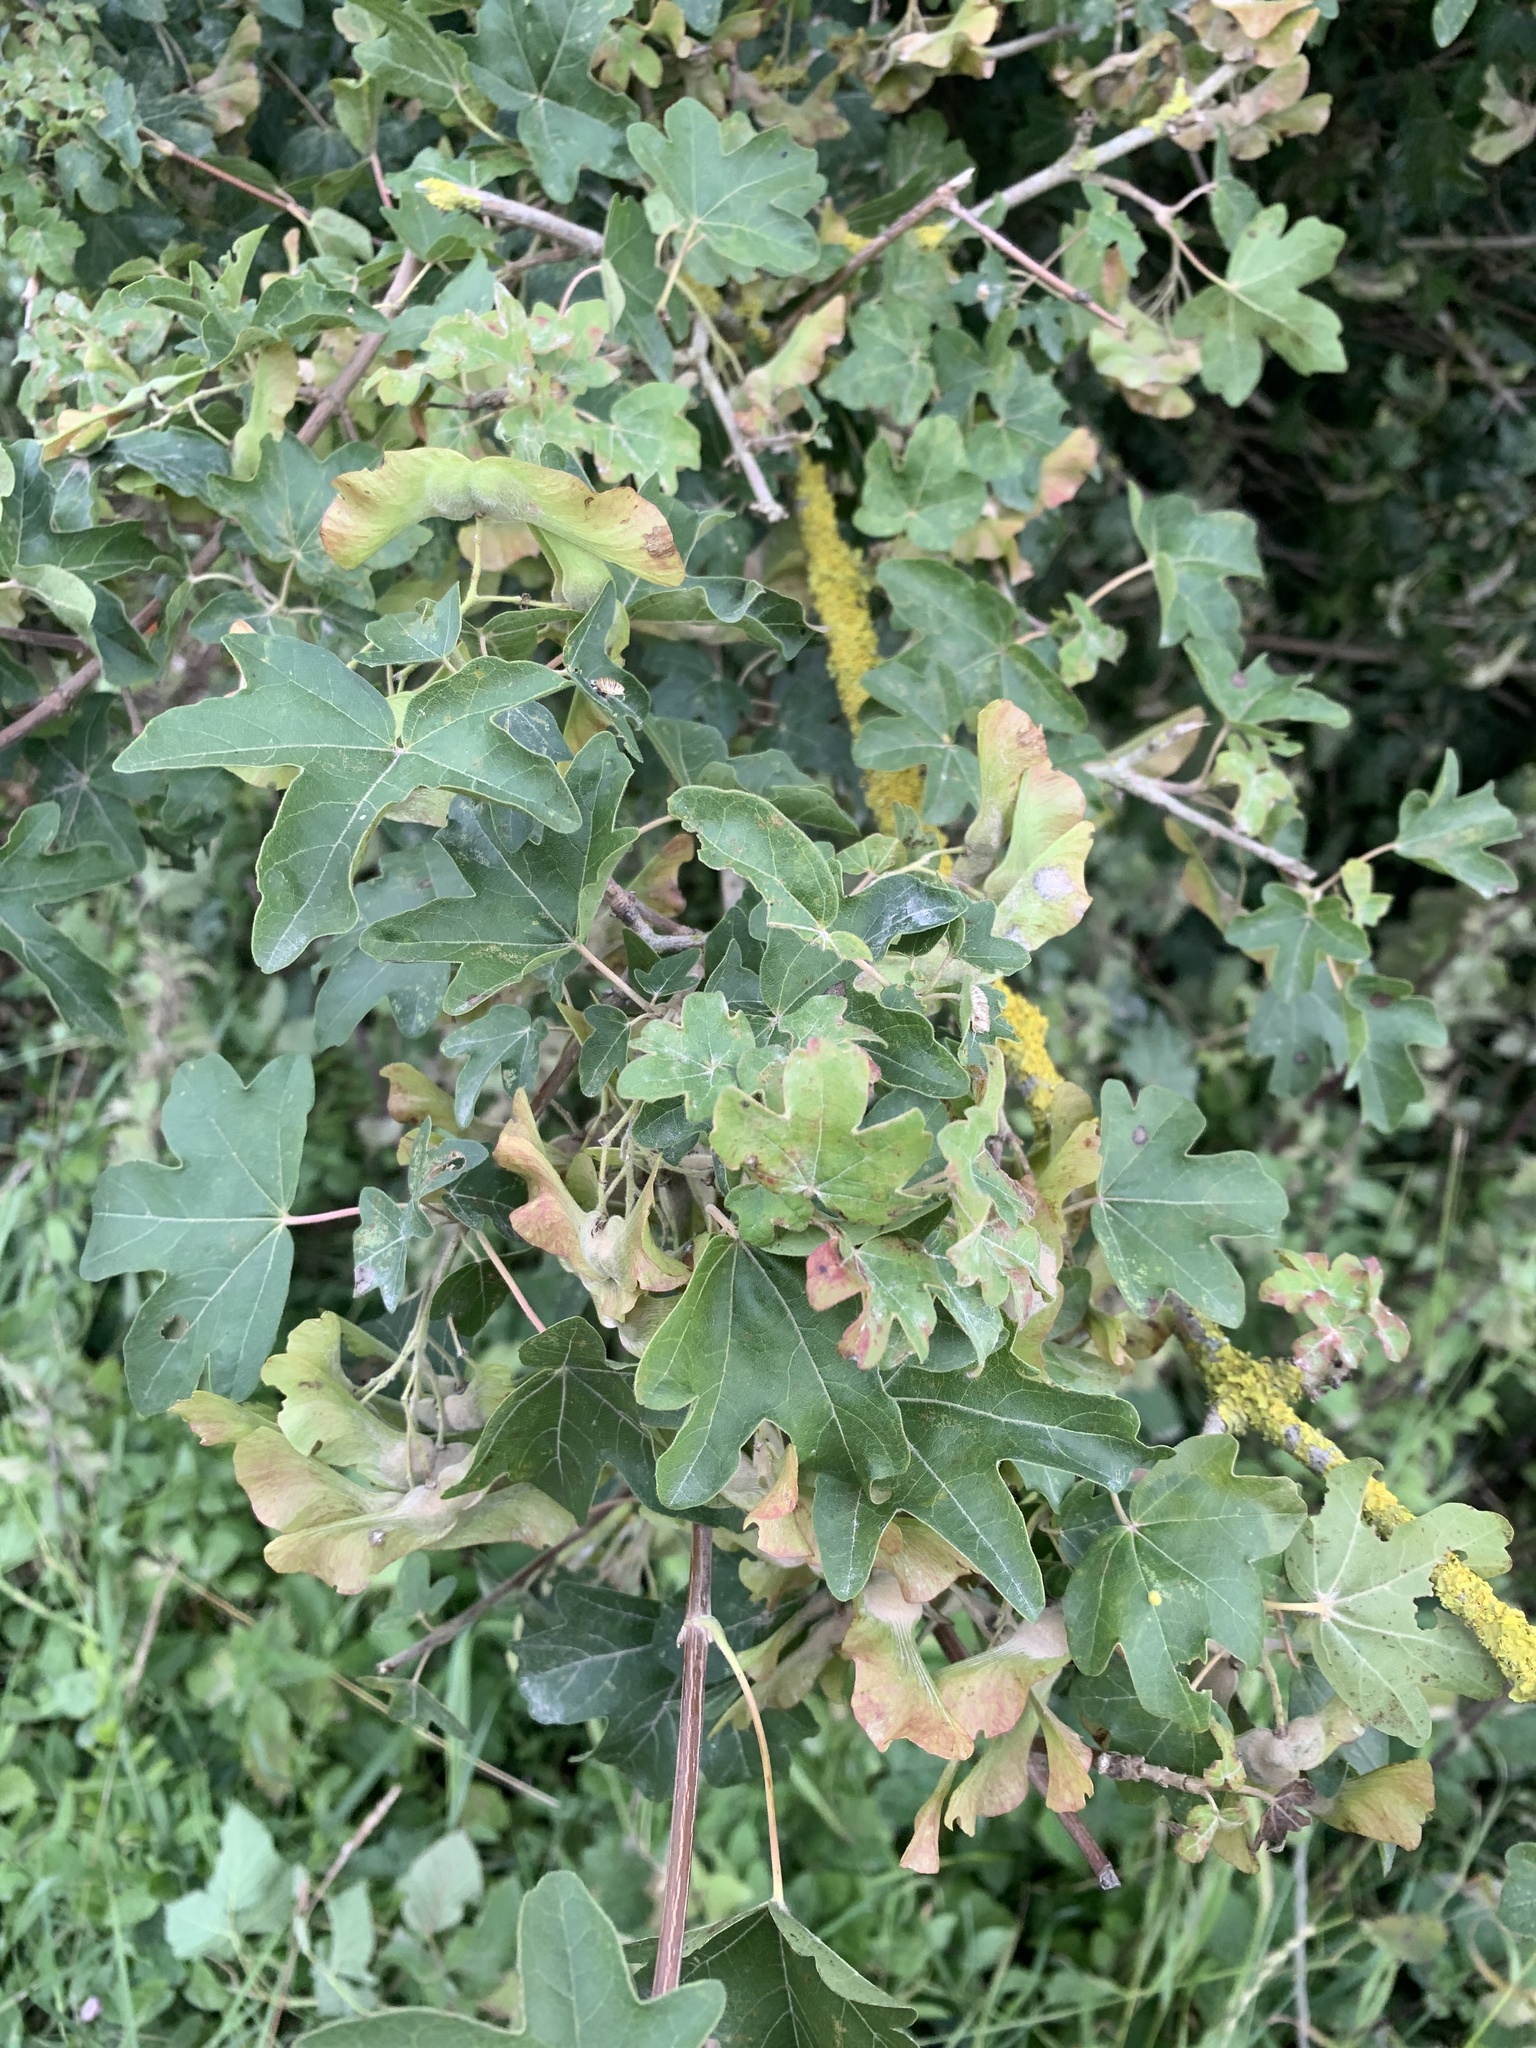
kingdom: Plantae
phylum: Tracheophyta
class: Magnoliopsida
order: Sapindales
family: Sapindaceae
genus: Acer
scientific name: Acer campestre
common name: Field maple
